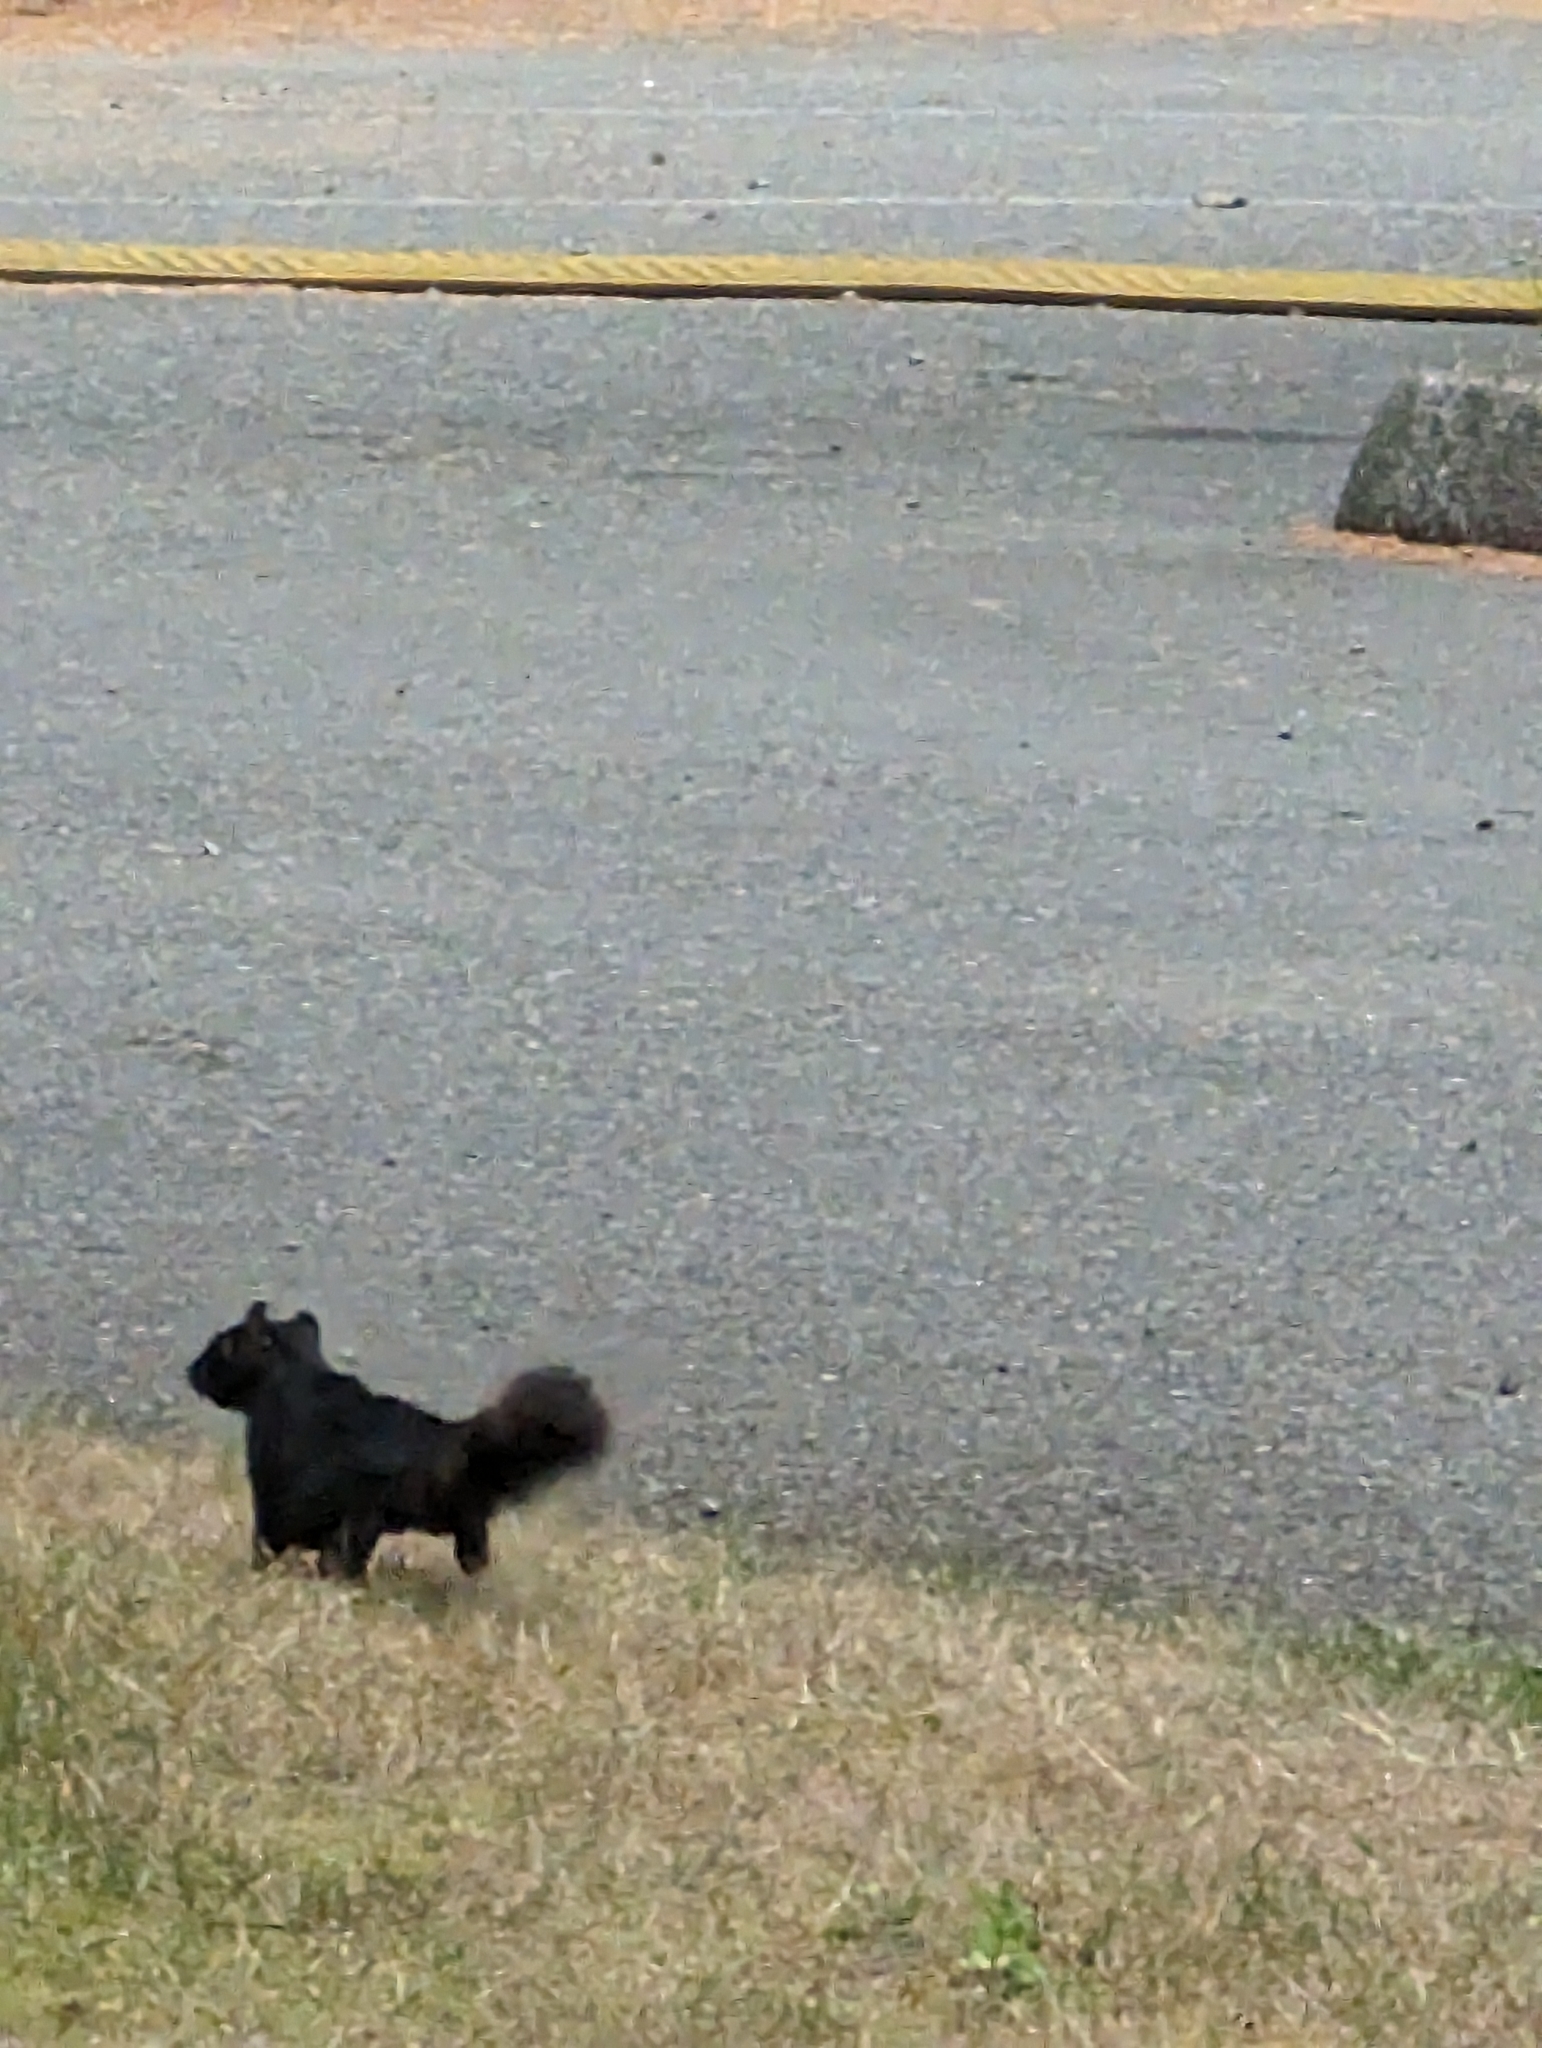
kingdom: Animalia
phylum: Chordata
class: Mammalia
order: Rodentia
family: Sciuridae
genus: Sciurus
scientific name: Sciurus carolinensis
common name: Eastern gray squirrel
